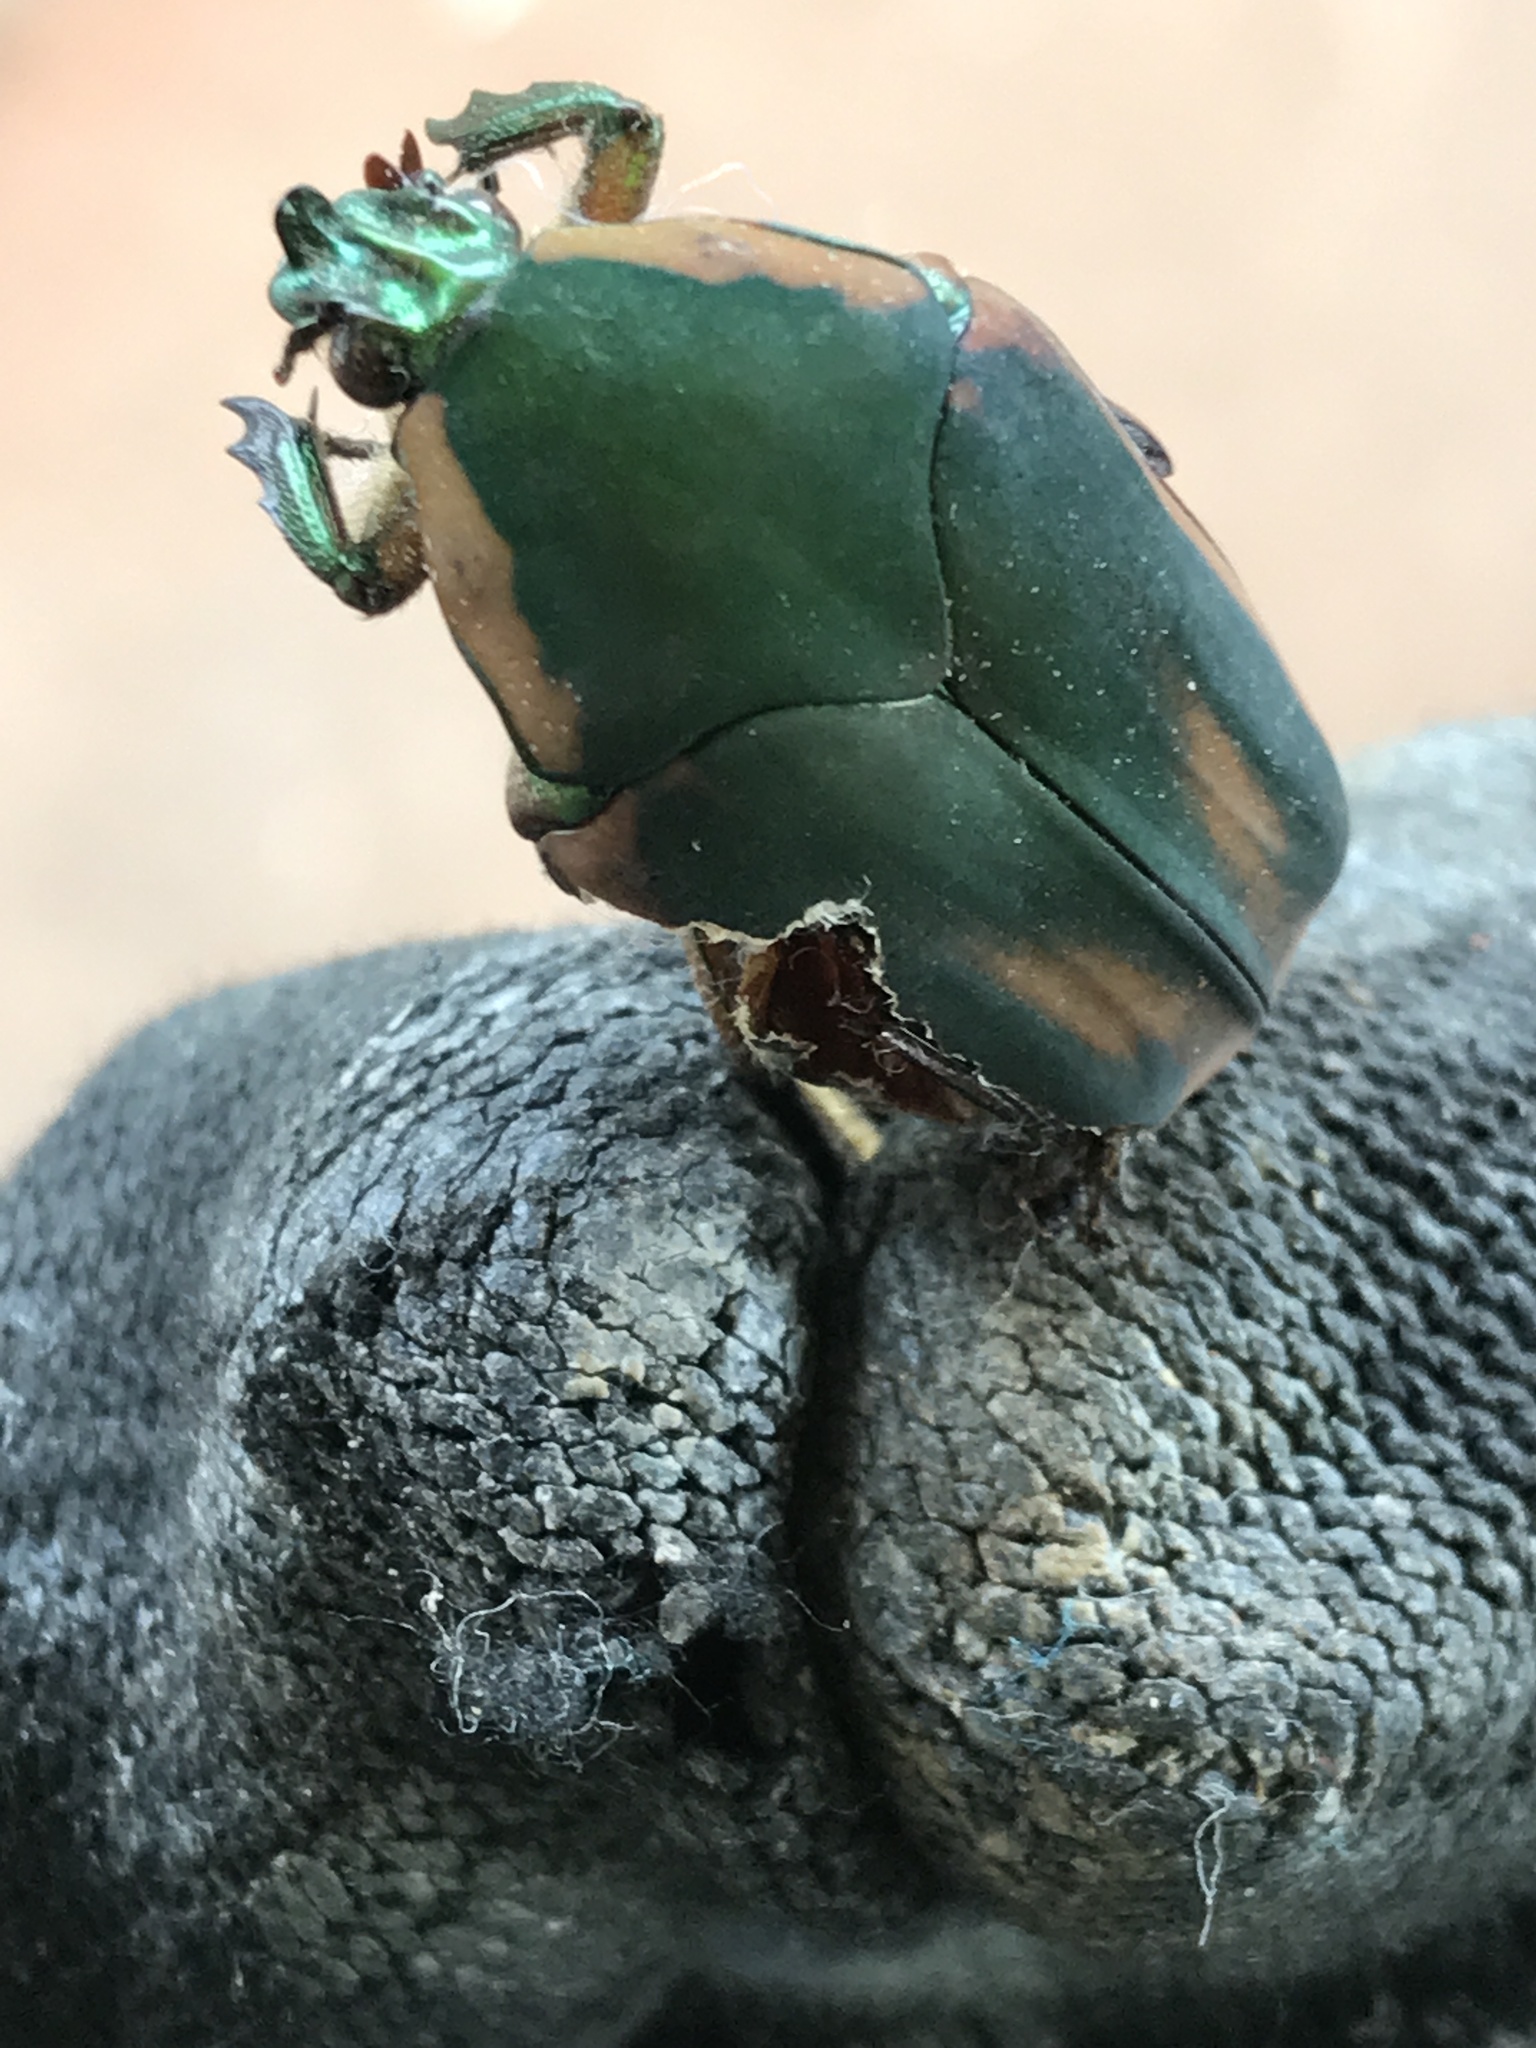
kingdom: Animalia
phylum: Arthropoda
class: Insecta
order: Coleoptera
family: Scarabaeidae
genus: Cotinis
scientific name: Cotinis nitida
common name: Common green june beetle
